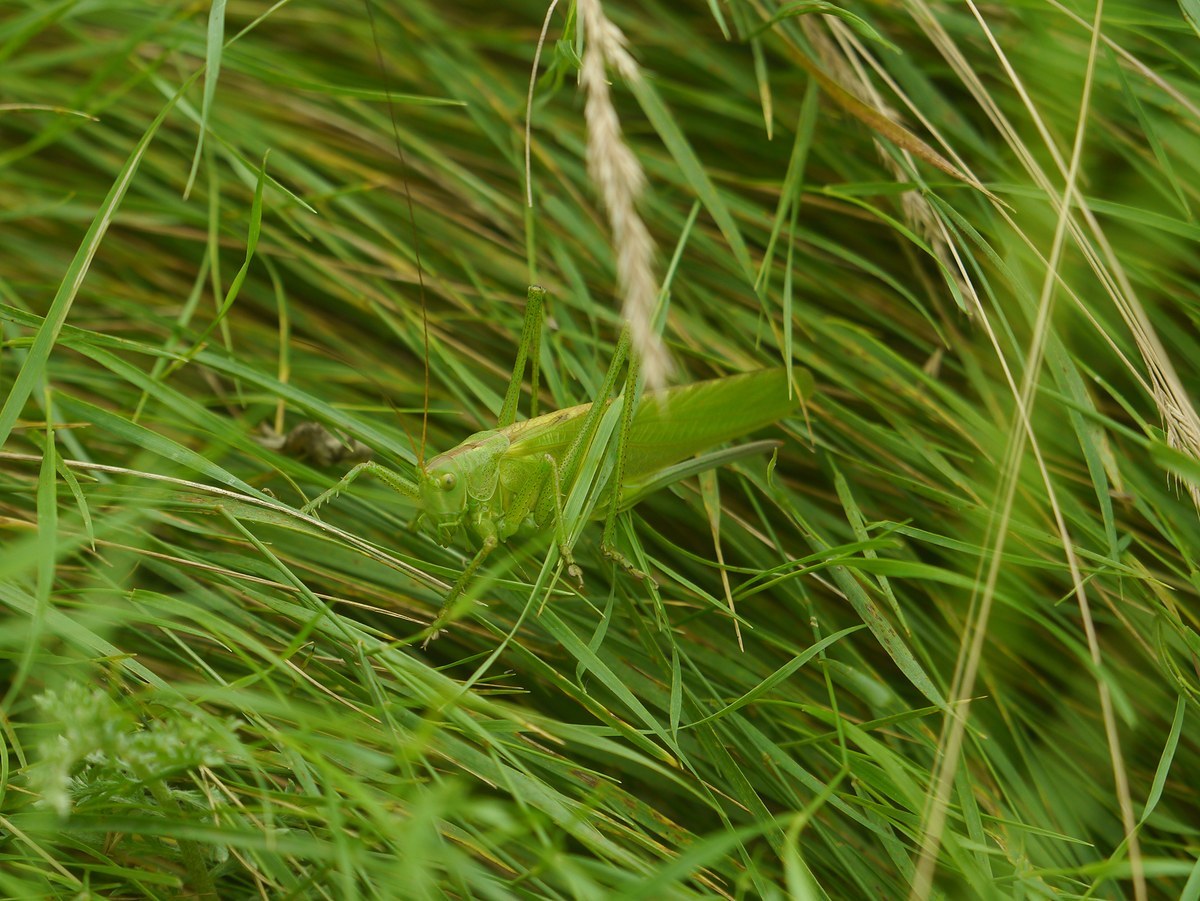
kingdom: Animalia
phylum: Arthropoda
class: Insecta
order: Orthoptera
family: Tettigoniidae
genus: Tettigonia
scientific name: Tettigonia viridissima
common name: Great green bush-cricket
